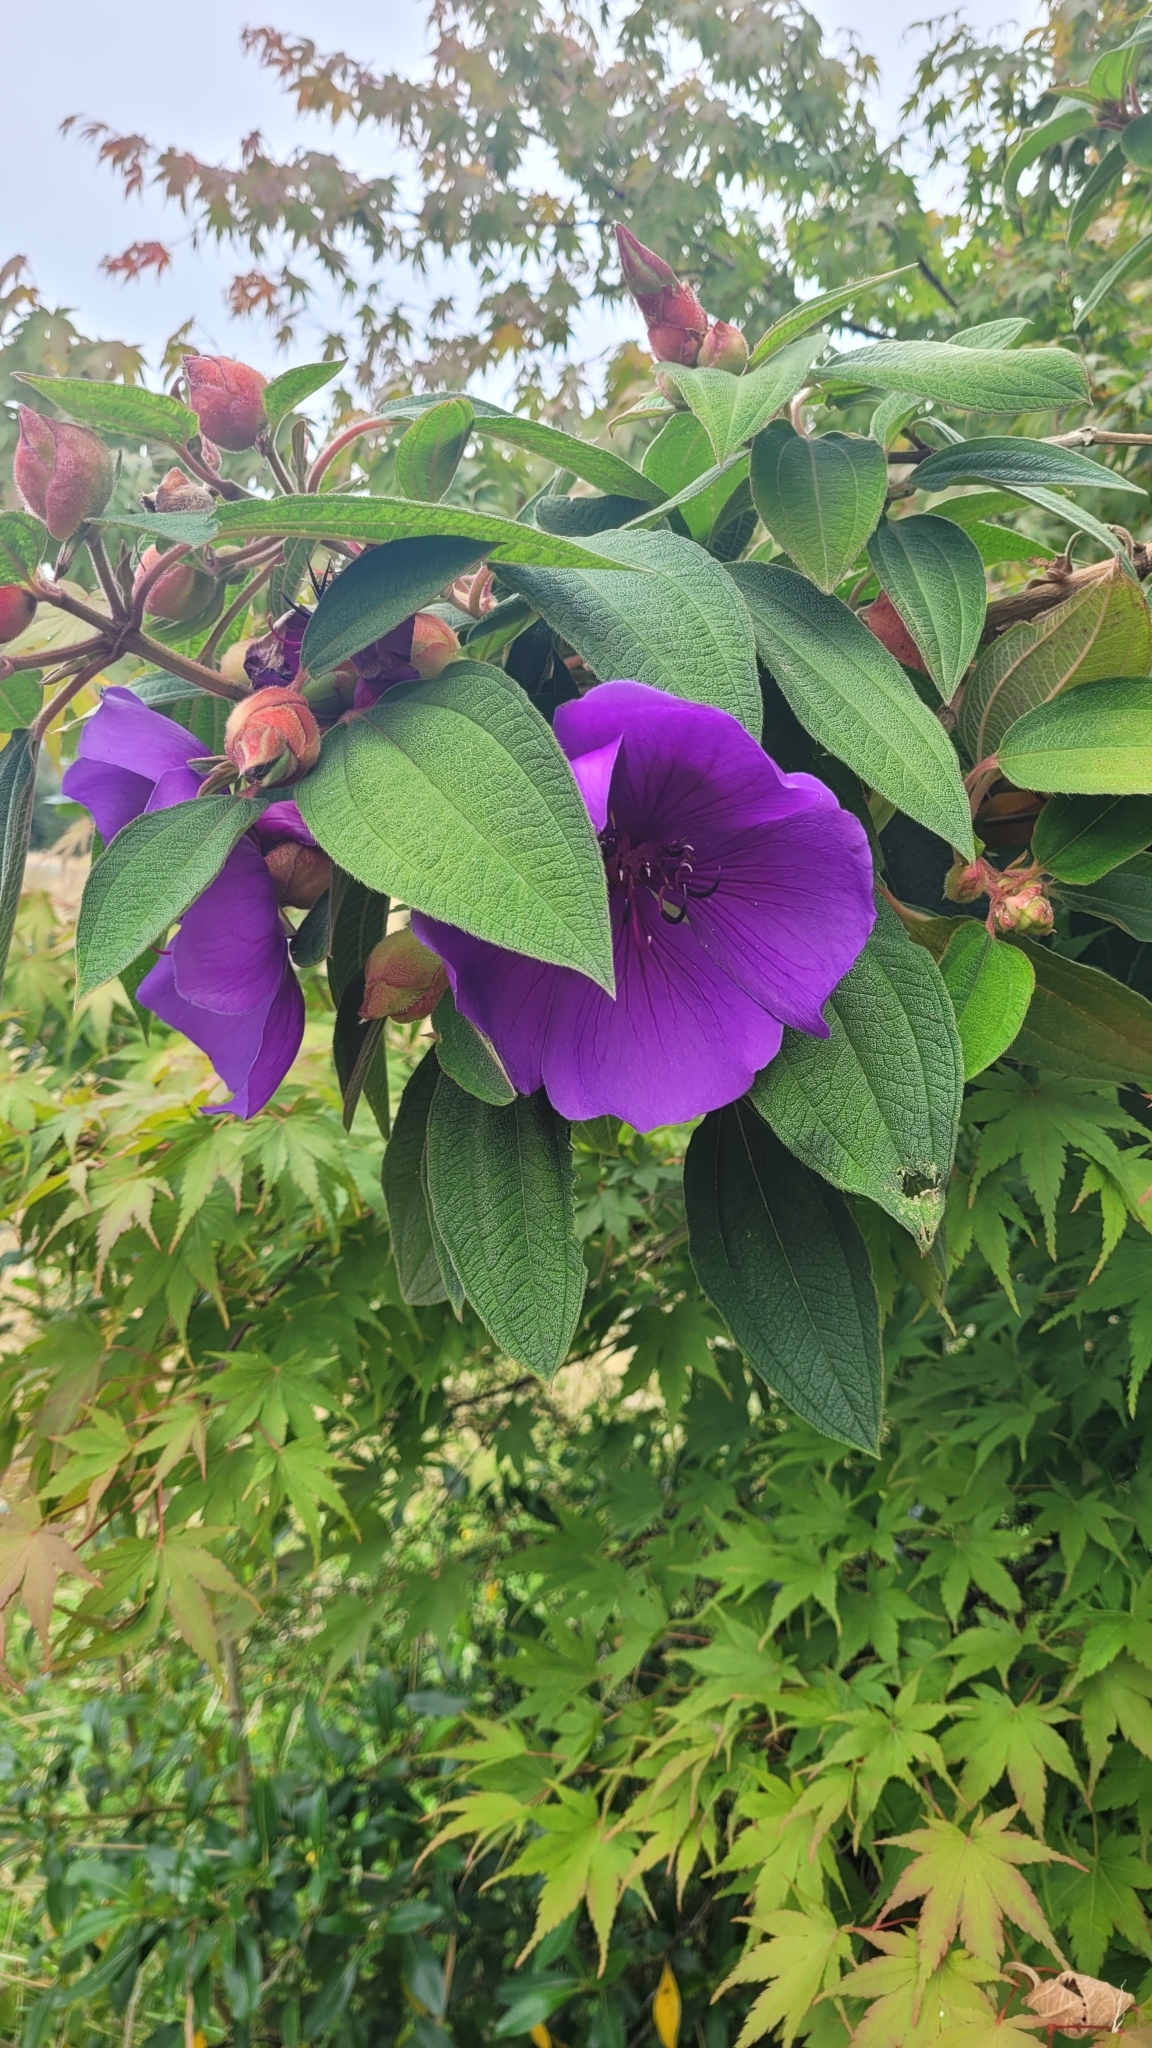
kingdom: Plantae
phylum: Tracheophyta
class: Magnoliopsida
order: Myrtales
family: Melastomataceae
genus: Pleroma
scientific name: Pleroma urvilleanum
